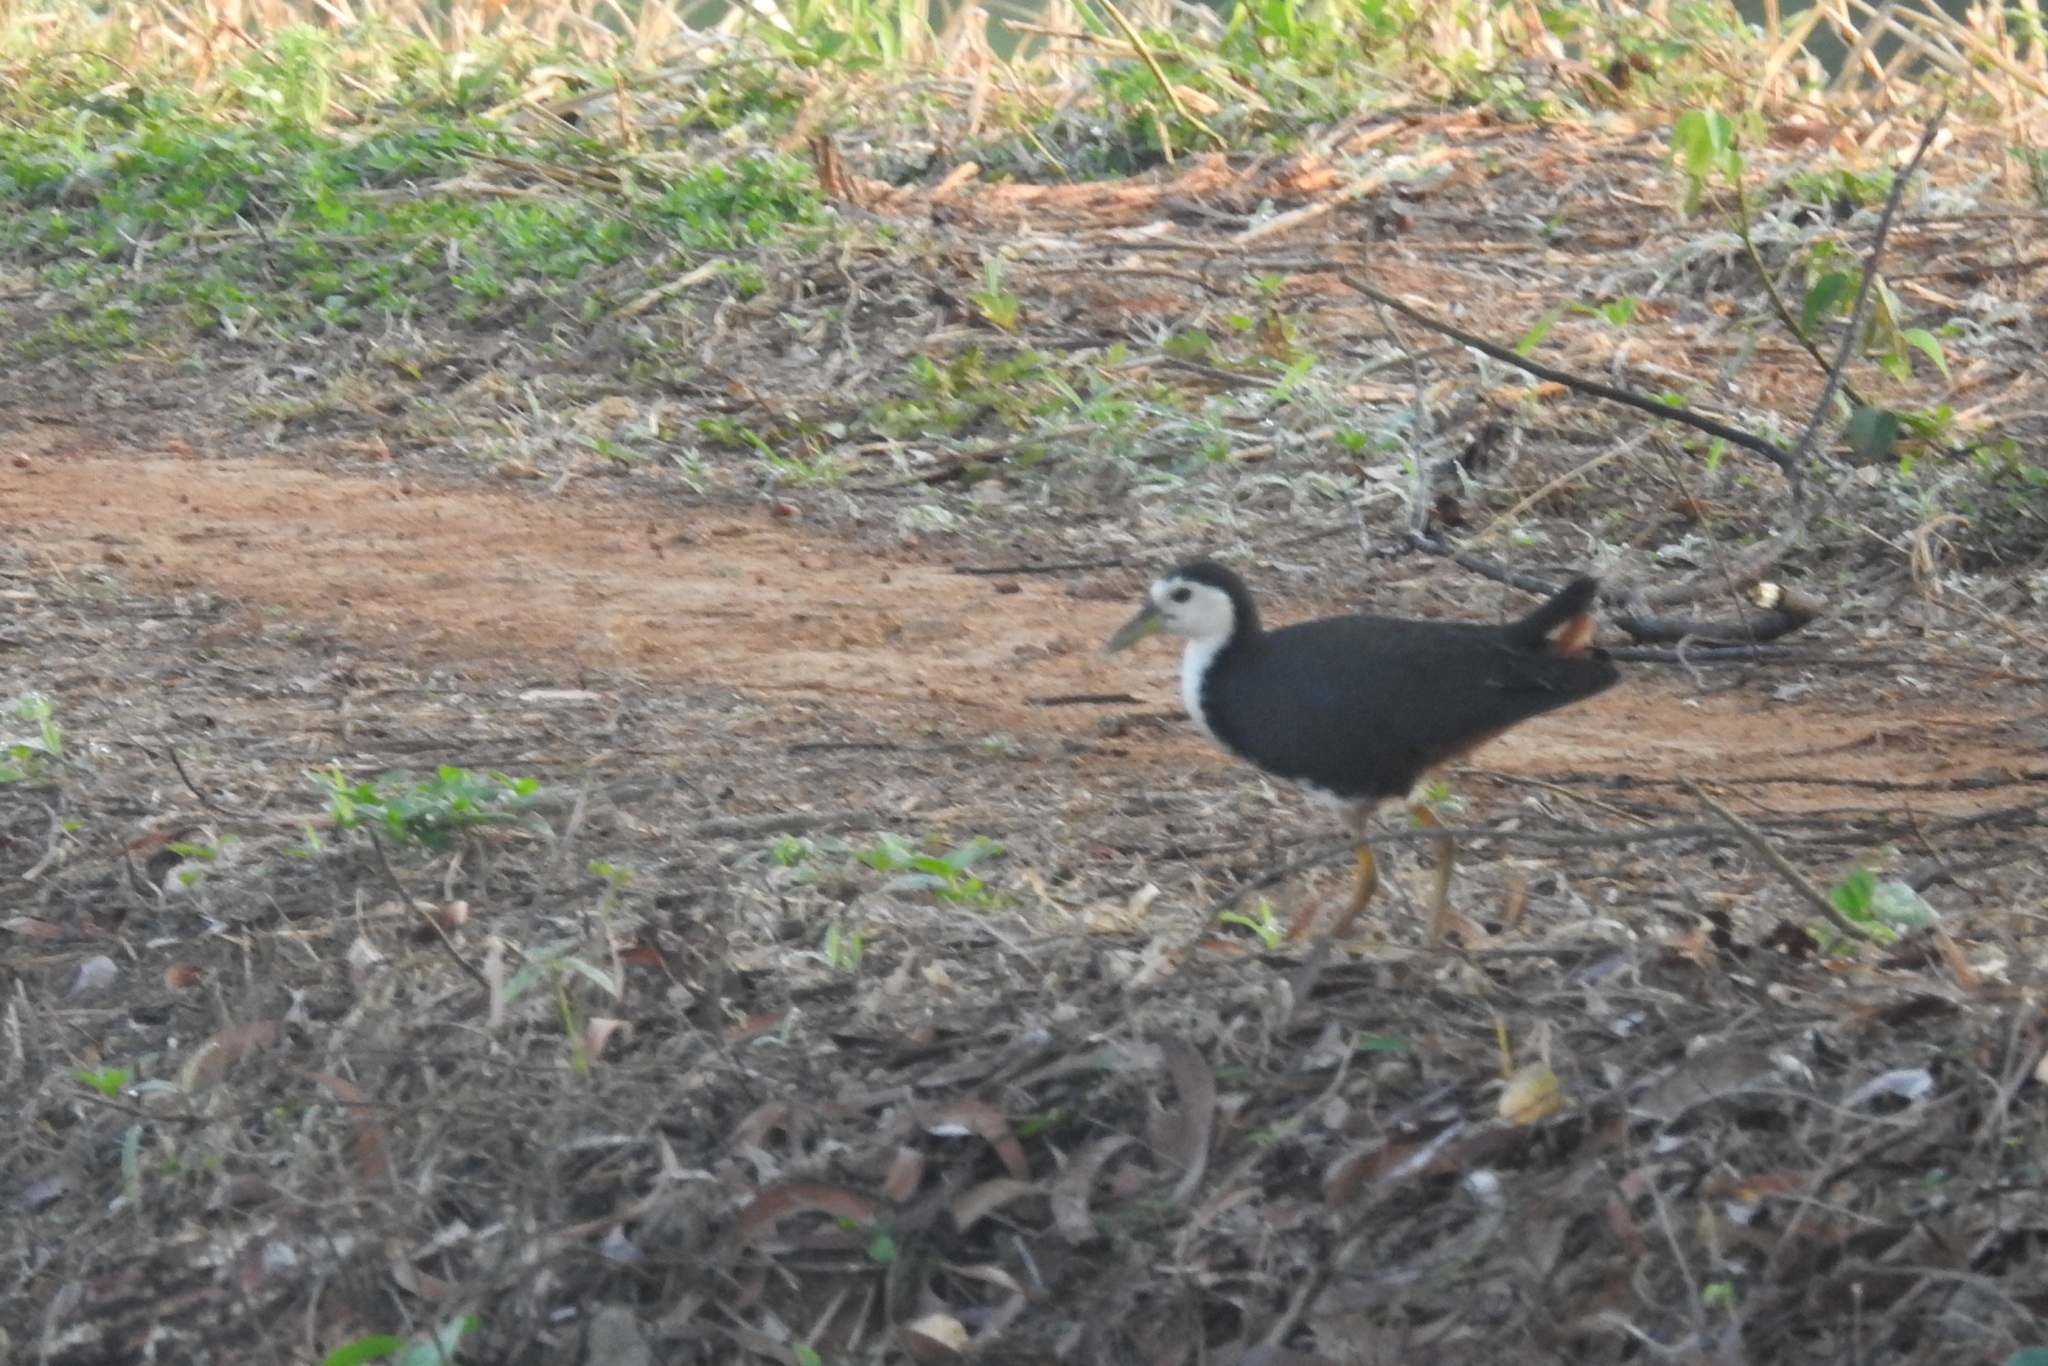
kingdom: Animalia
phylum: Chordata
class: Aves
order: Gruiformes
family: Rallidae
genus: Amaurornis
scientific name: Amaurornis phoenicurus
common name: White-breasted waterhen
